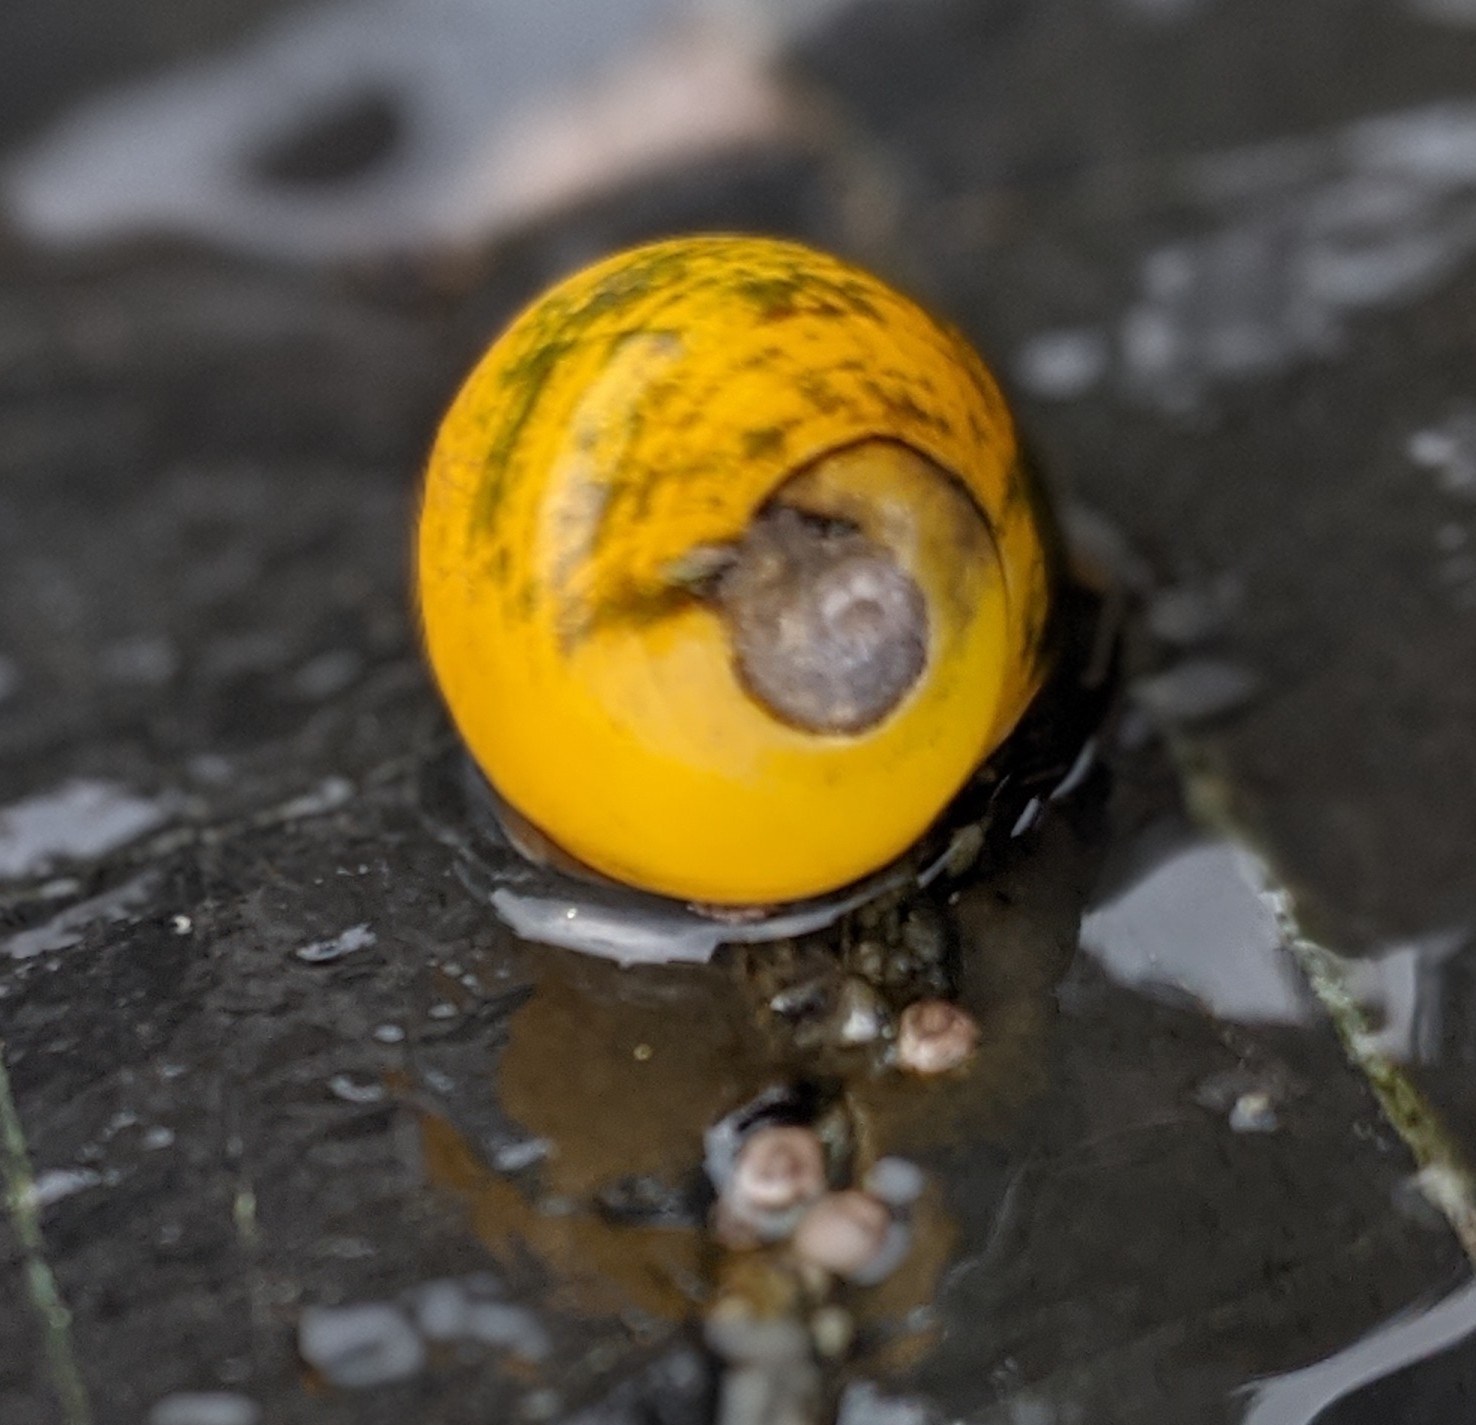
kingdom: Animalia
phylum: Mollusca
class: Gastropoda
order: Littorinimorpha
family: Littorinidae
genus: Littorina
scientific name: Littorina
